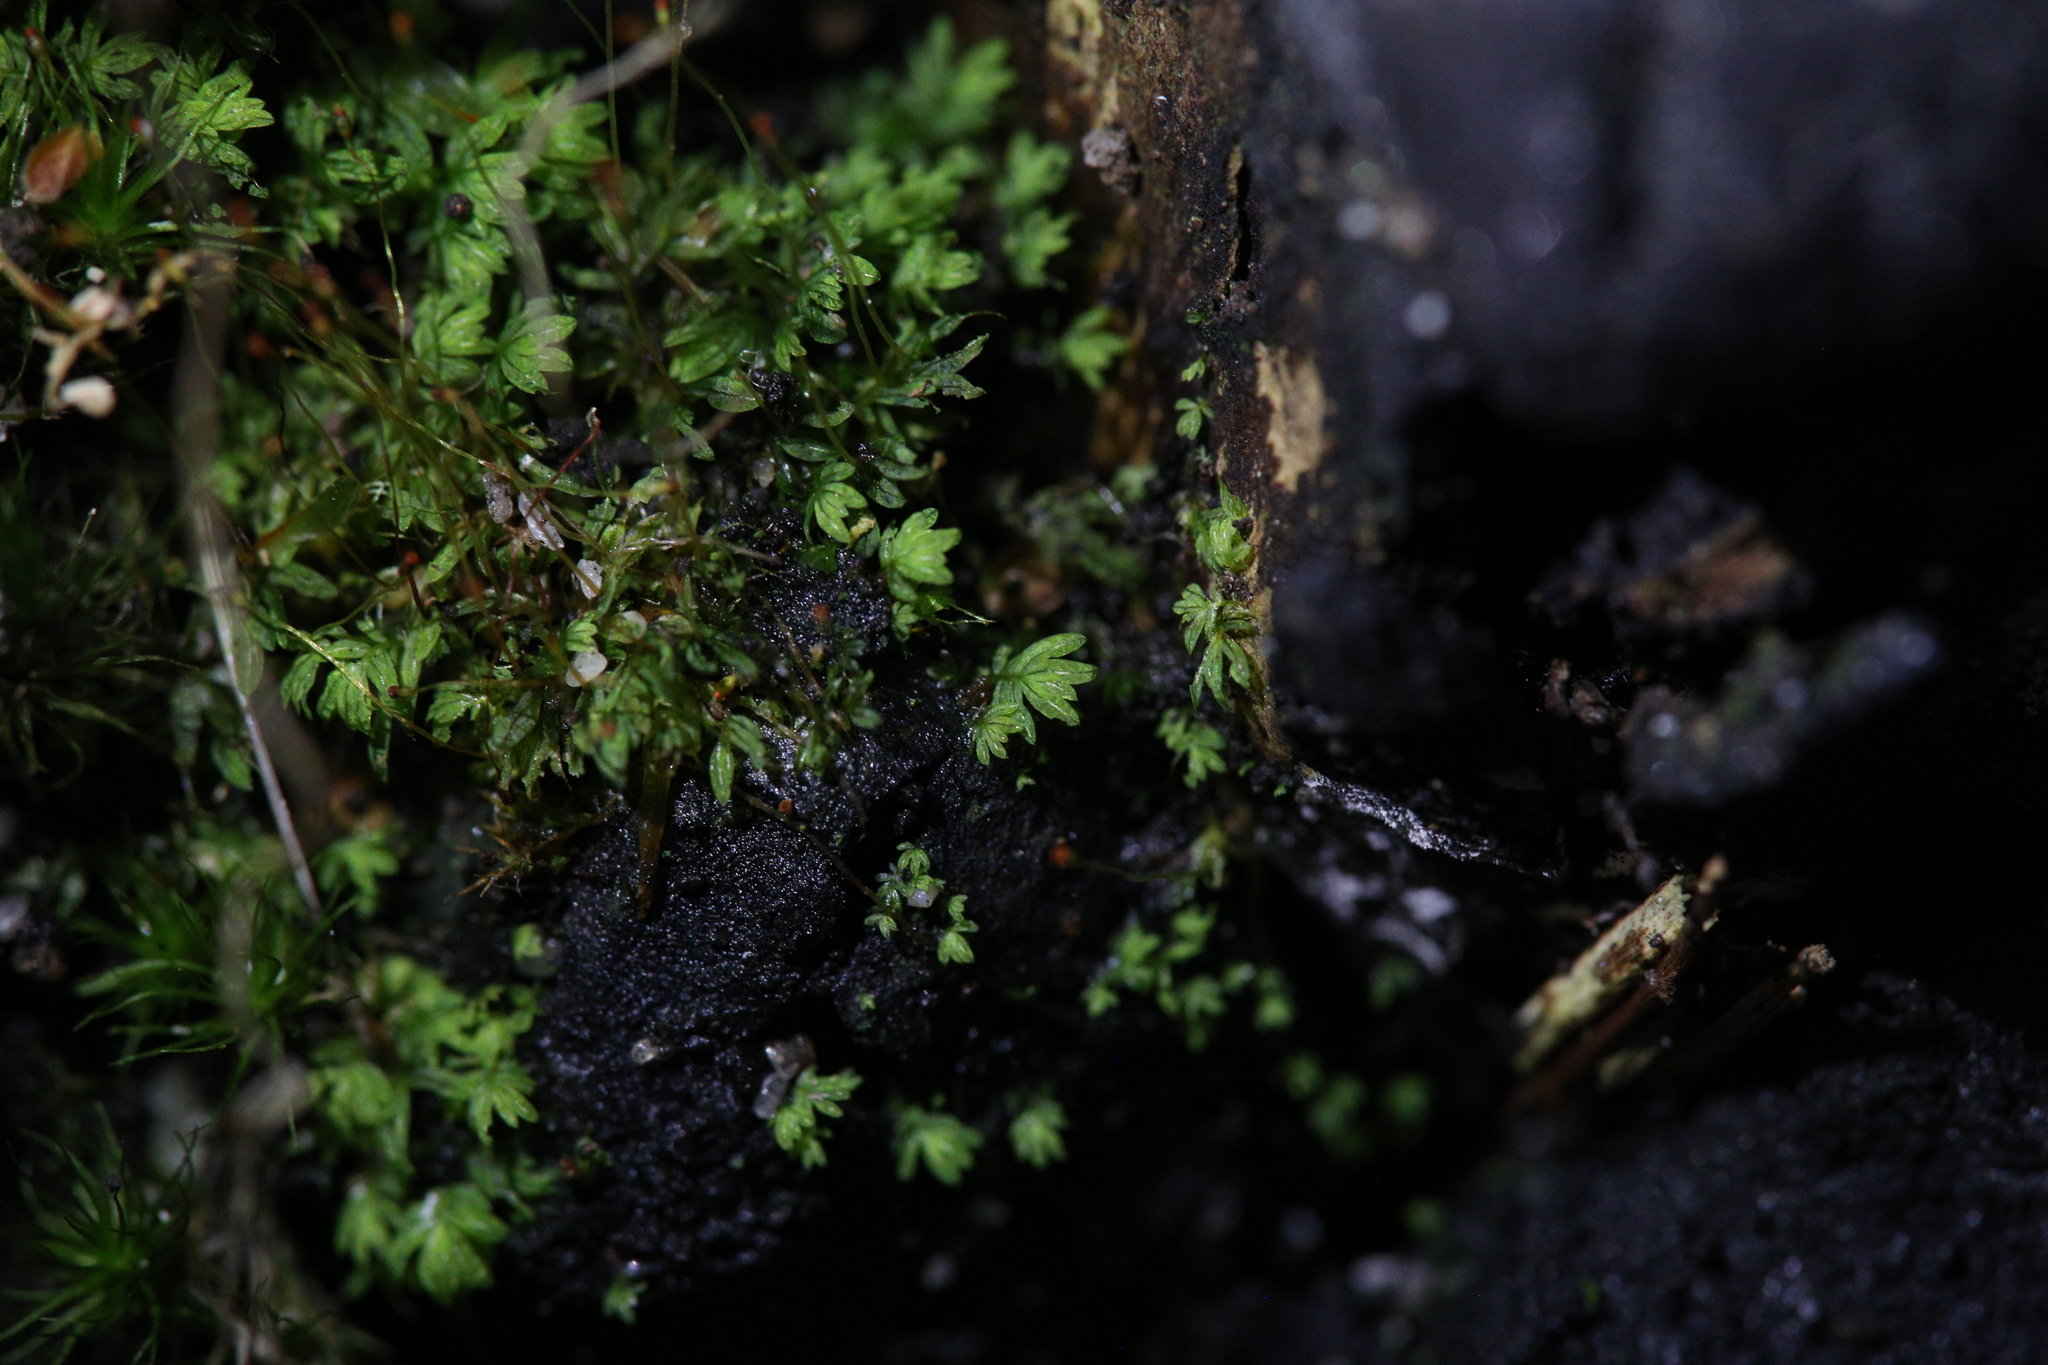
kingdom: Plantae
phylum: Bryophyta
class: Bryopsida
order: Dicranales
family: Fissidentaceae
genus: Fissidens
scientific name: Fissidens taylorii
